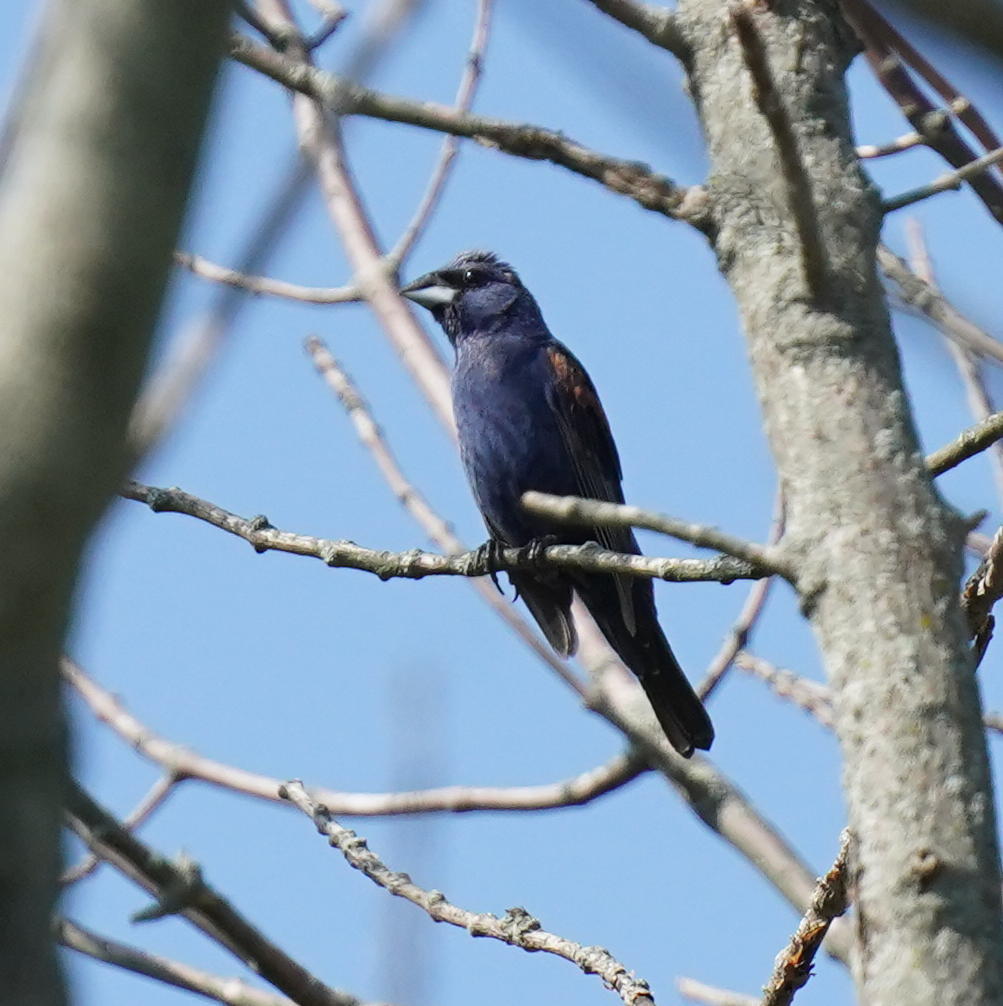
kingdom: Animalia
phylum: Chordata
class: Aves
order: Passeriformes
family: Cardinalidae
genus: Passerina
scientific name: Passerina caerulea
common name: Blue grosbeak
